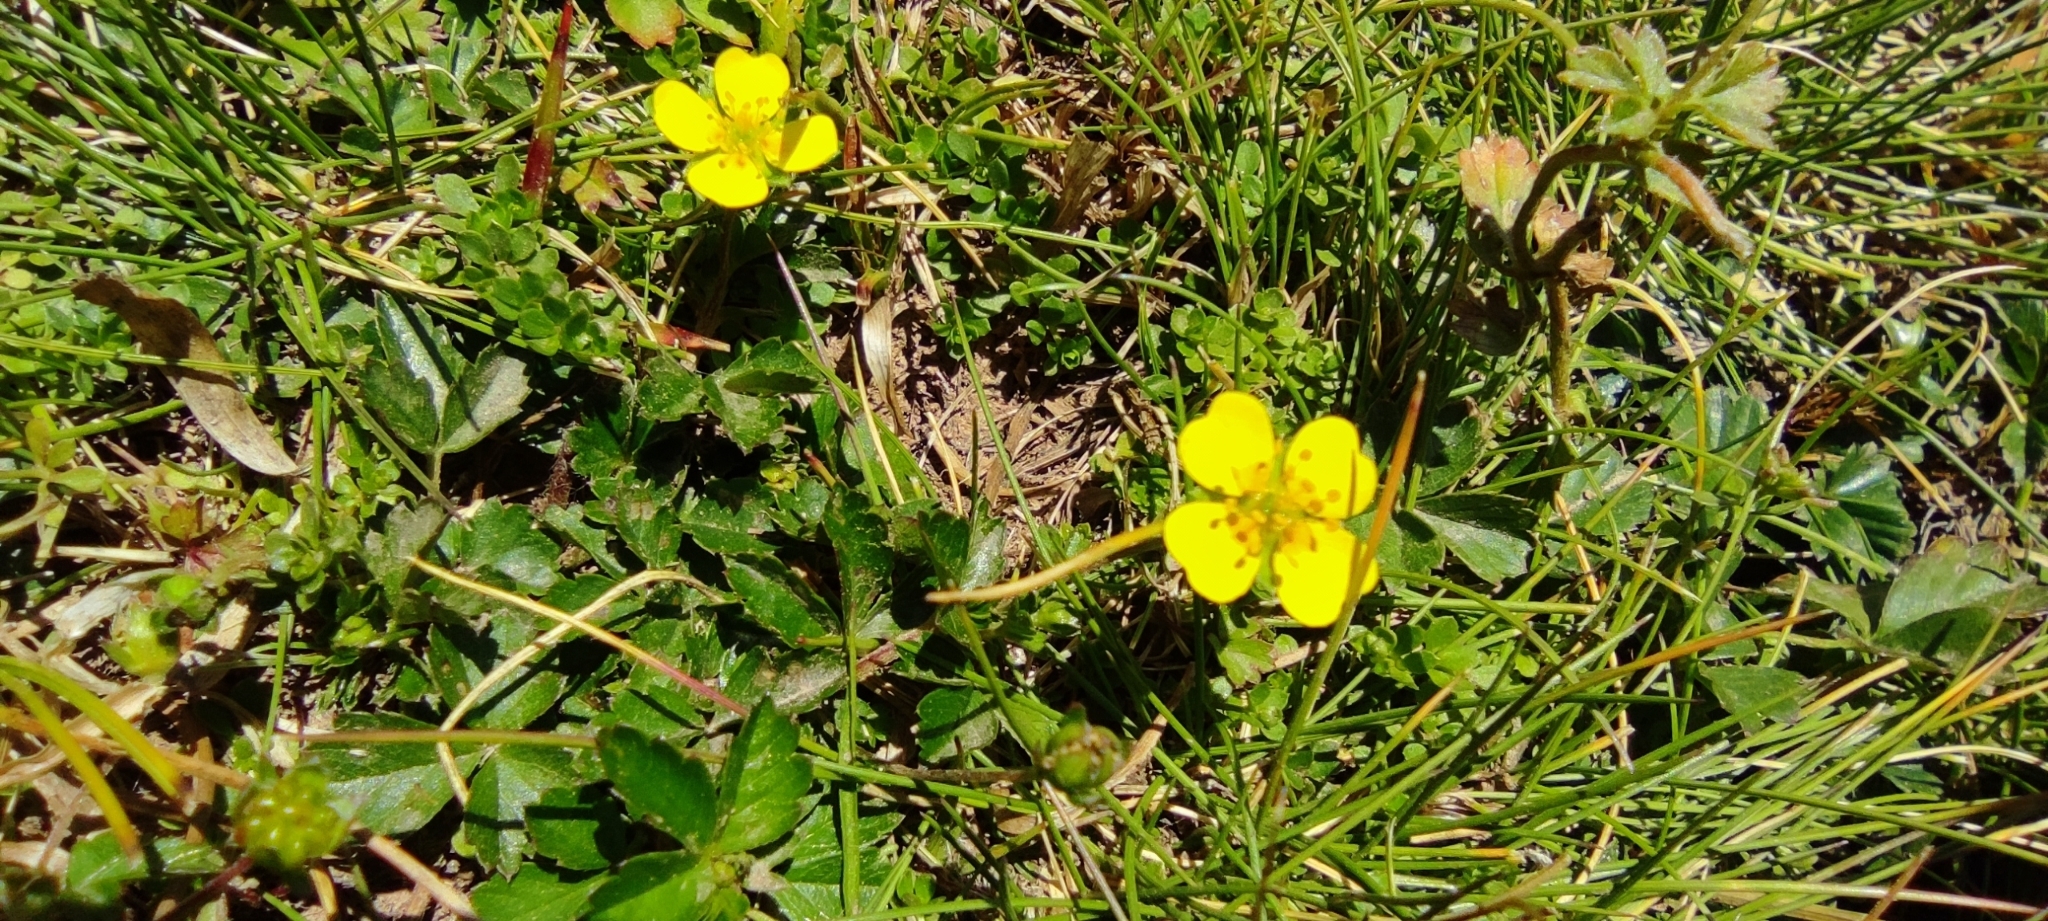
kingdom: Plantae
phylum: Tracheophyta
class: Magnoliopsida
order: Rosales
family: Rosaceae
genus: Potentilla
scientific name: Potentilla erecta
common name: Tormentil
